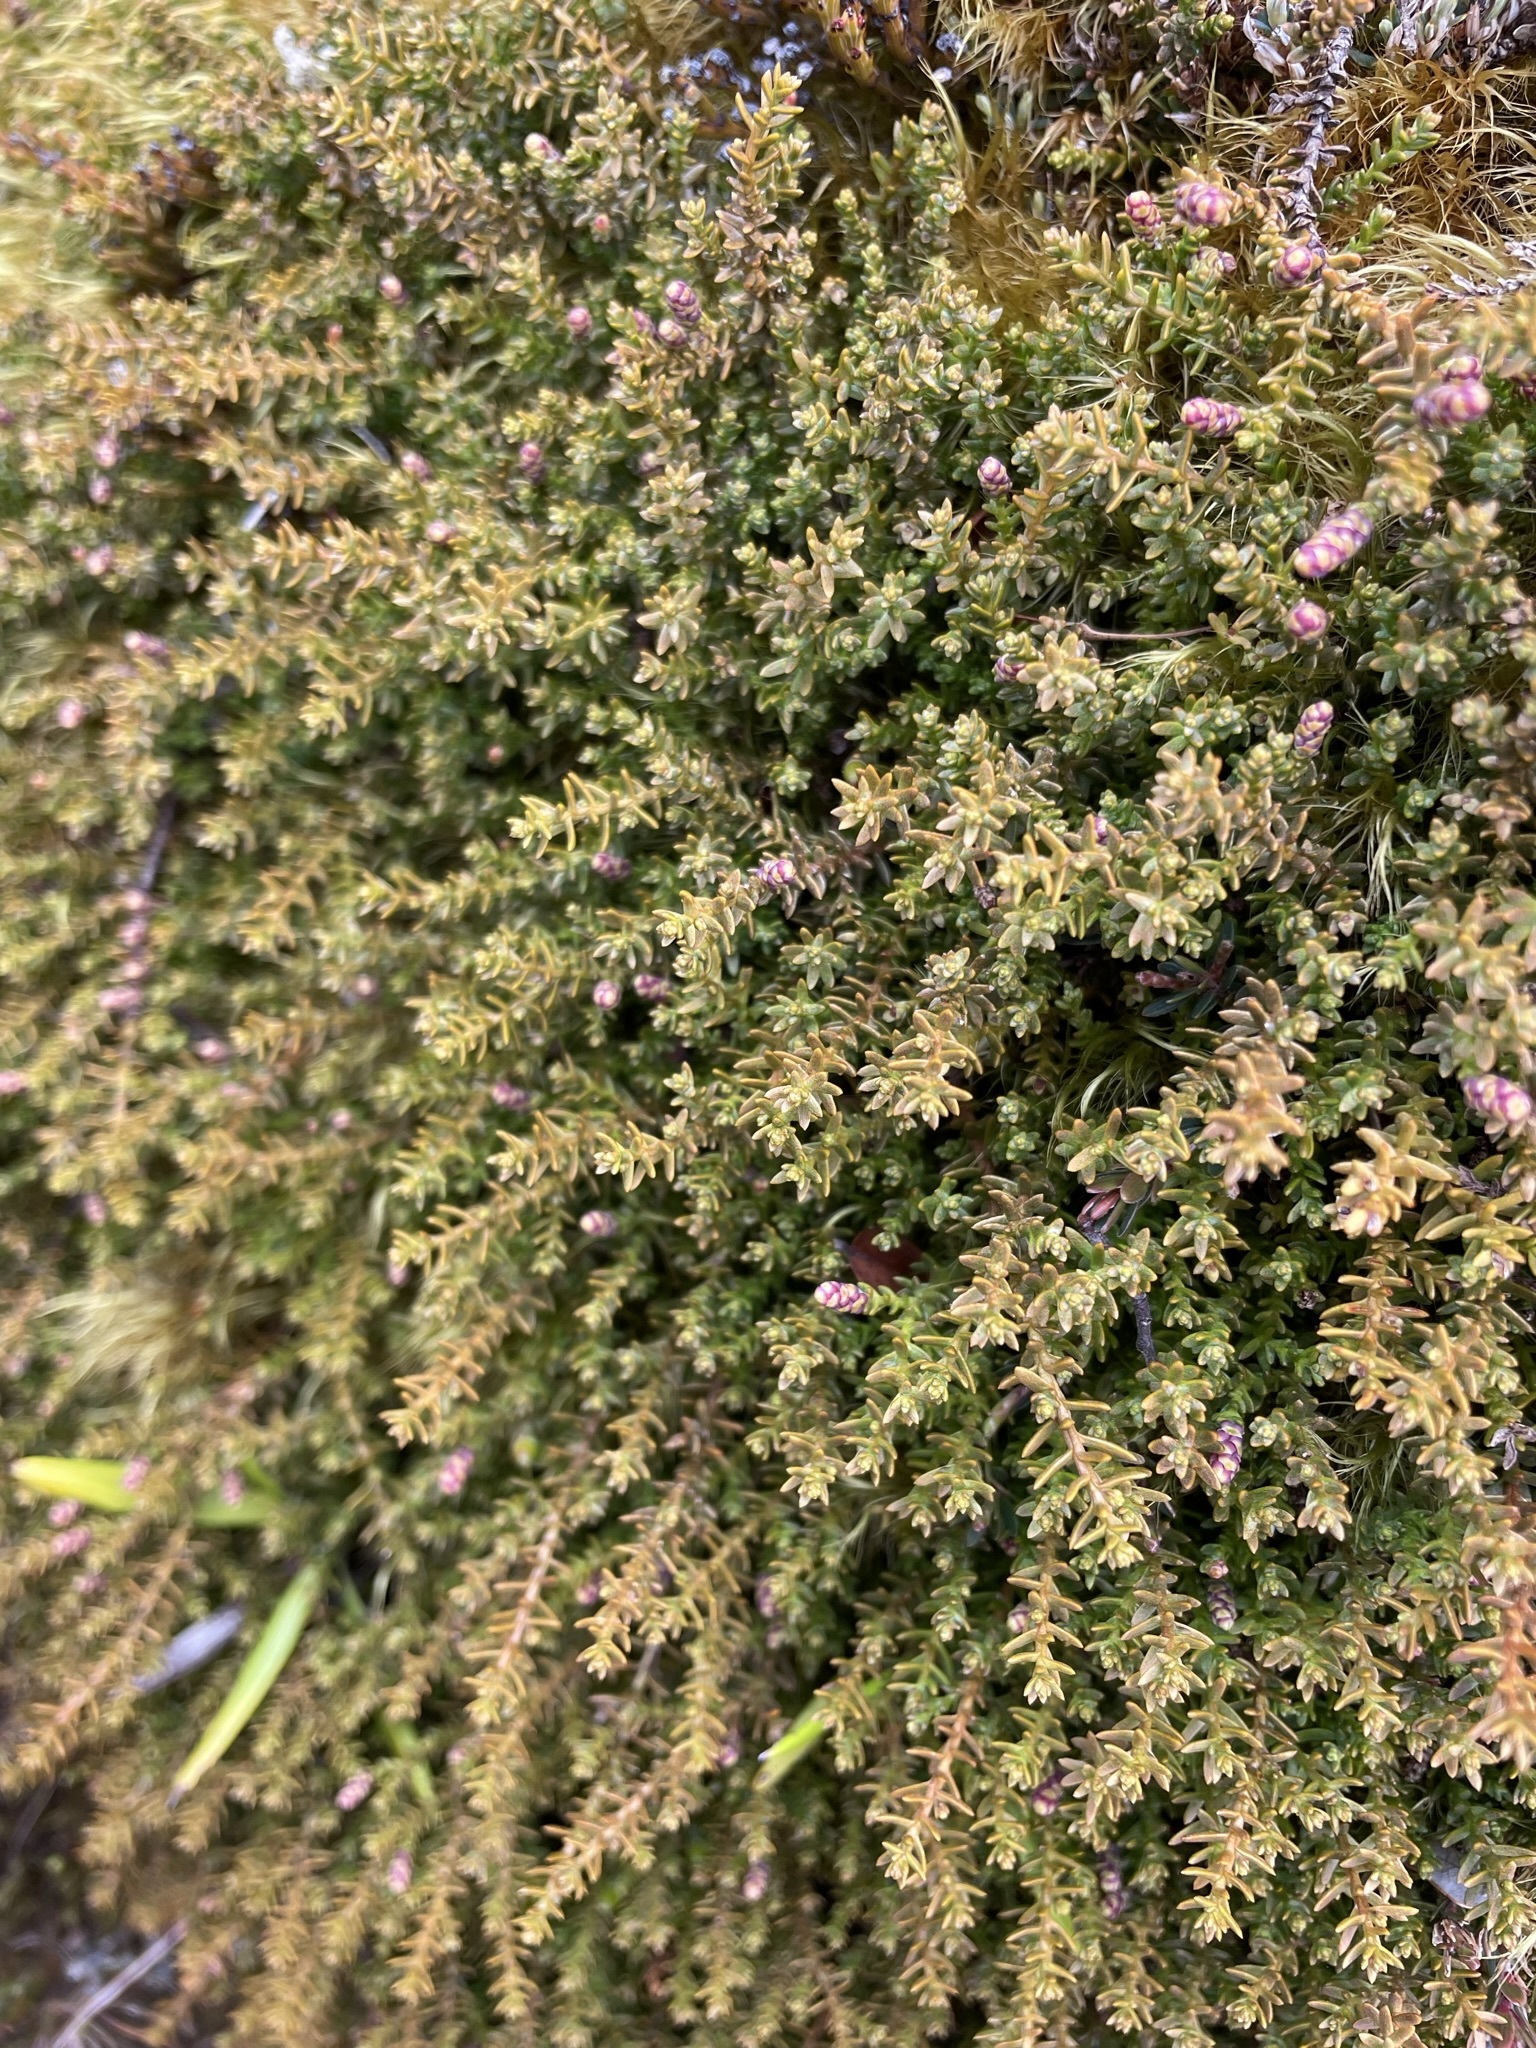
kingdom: Plantae
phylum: Tracheophyta
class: Pinopsida
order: Pinales
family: Podocarpaceae
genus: Lepidothamnus
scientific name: Lepidothamnus laxifolius
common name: Pygmy pine
